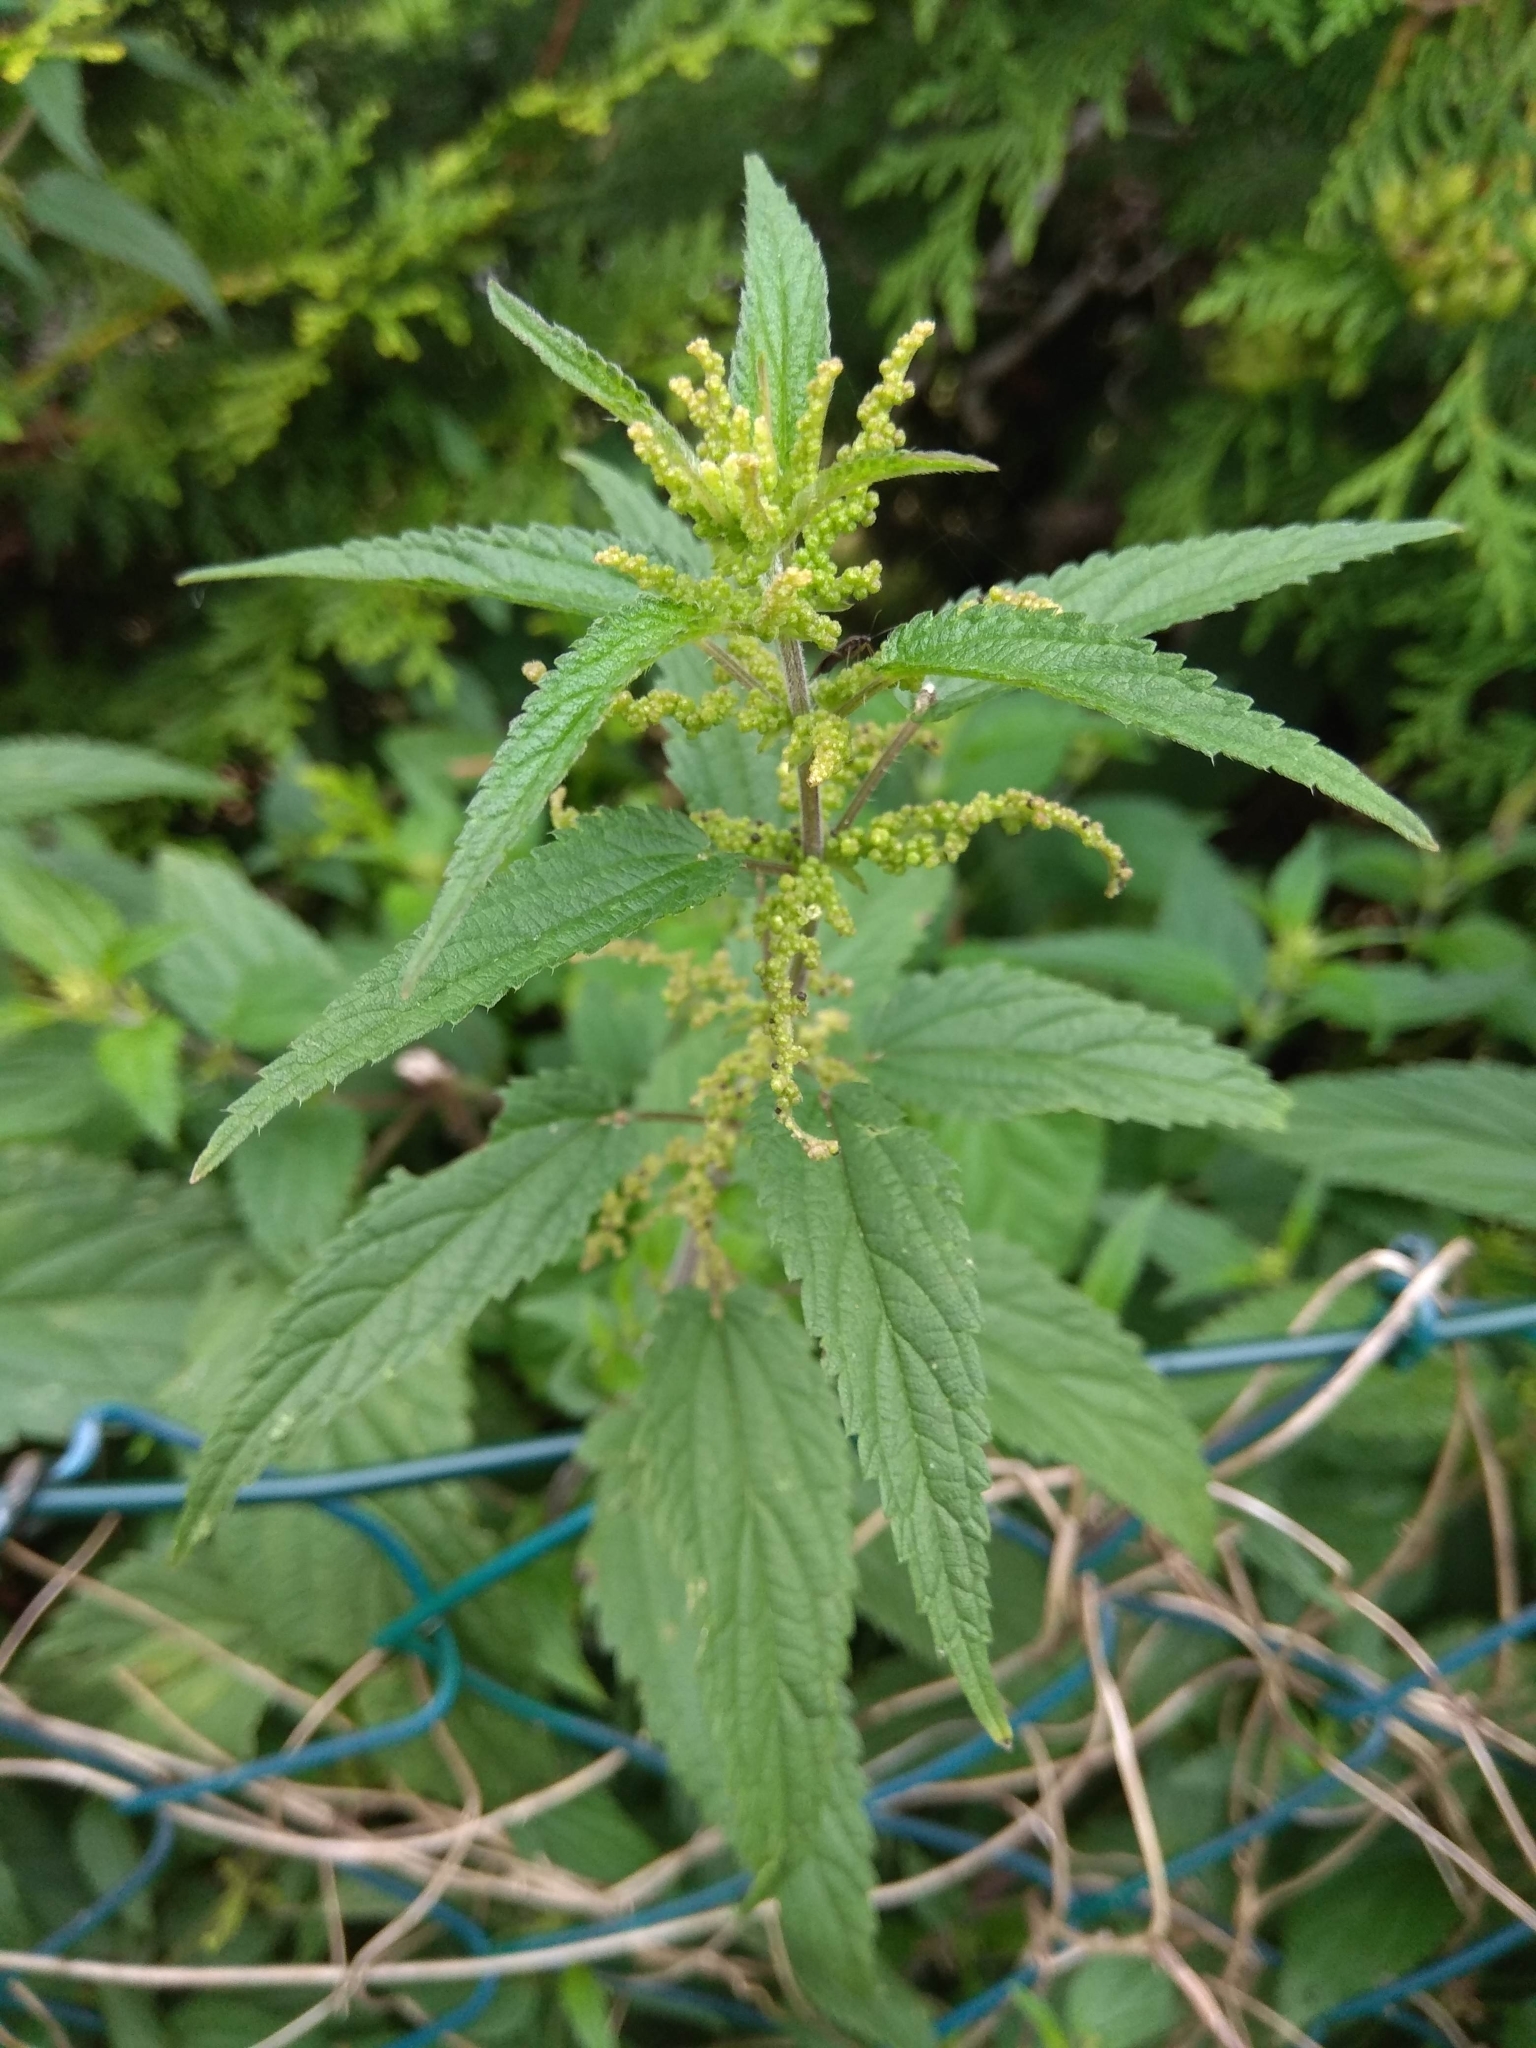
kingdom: Plantae
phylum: Tracheophyta
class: Magnoliopsida
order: Rosales
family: Urticaceae
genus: Urtica
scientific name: Urtica dioica
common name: Common nettle
